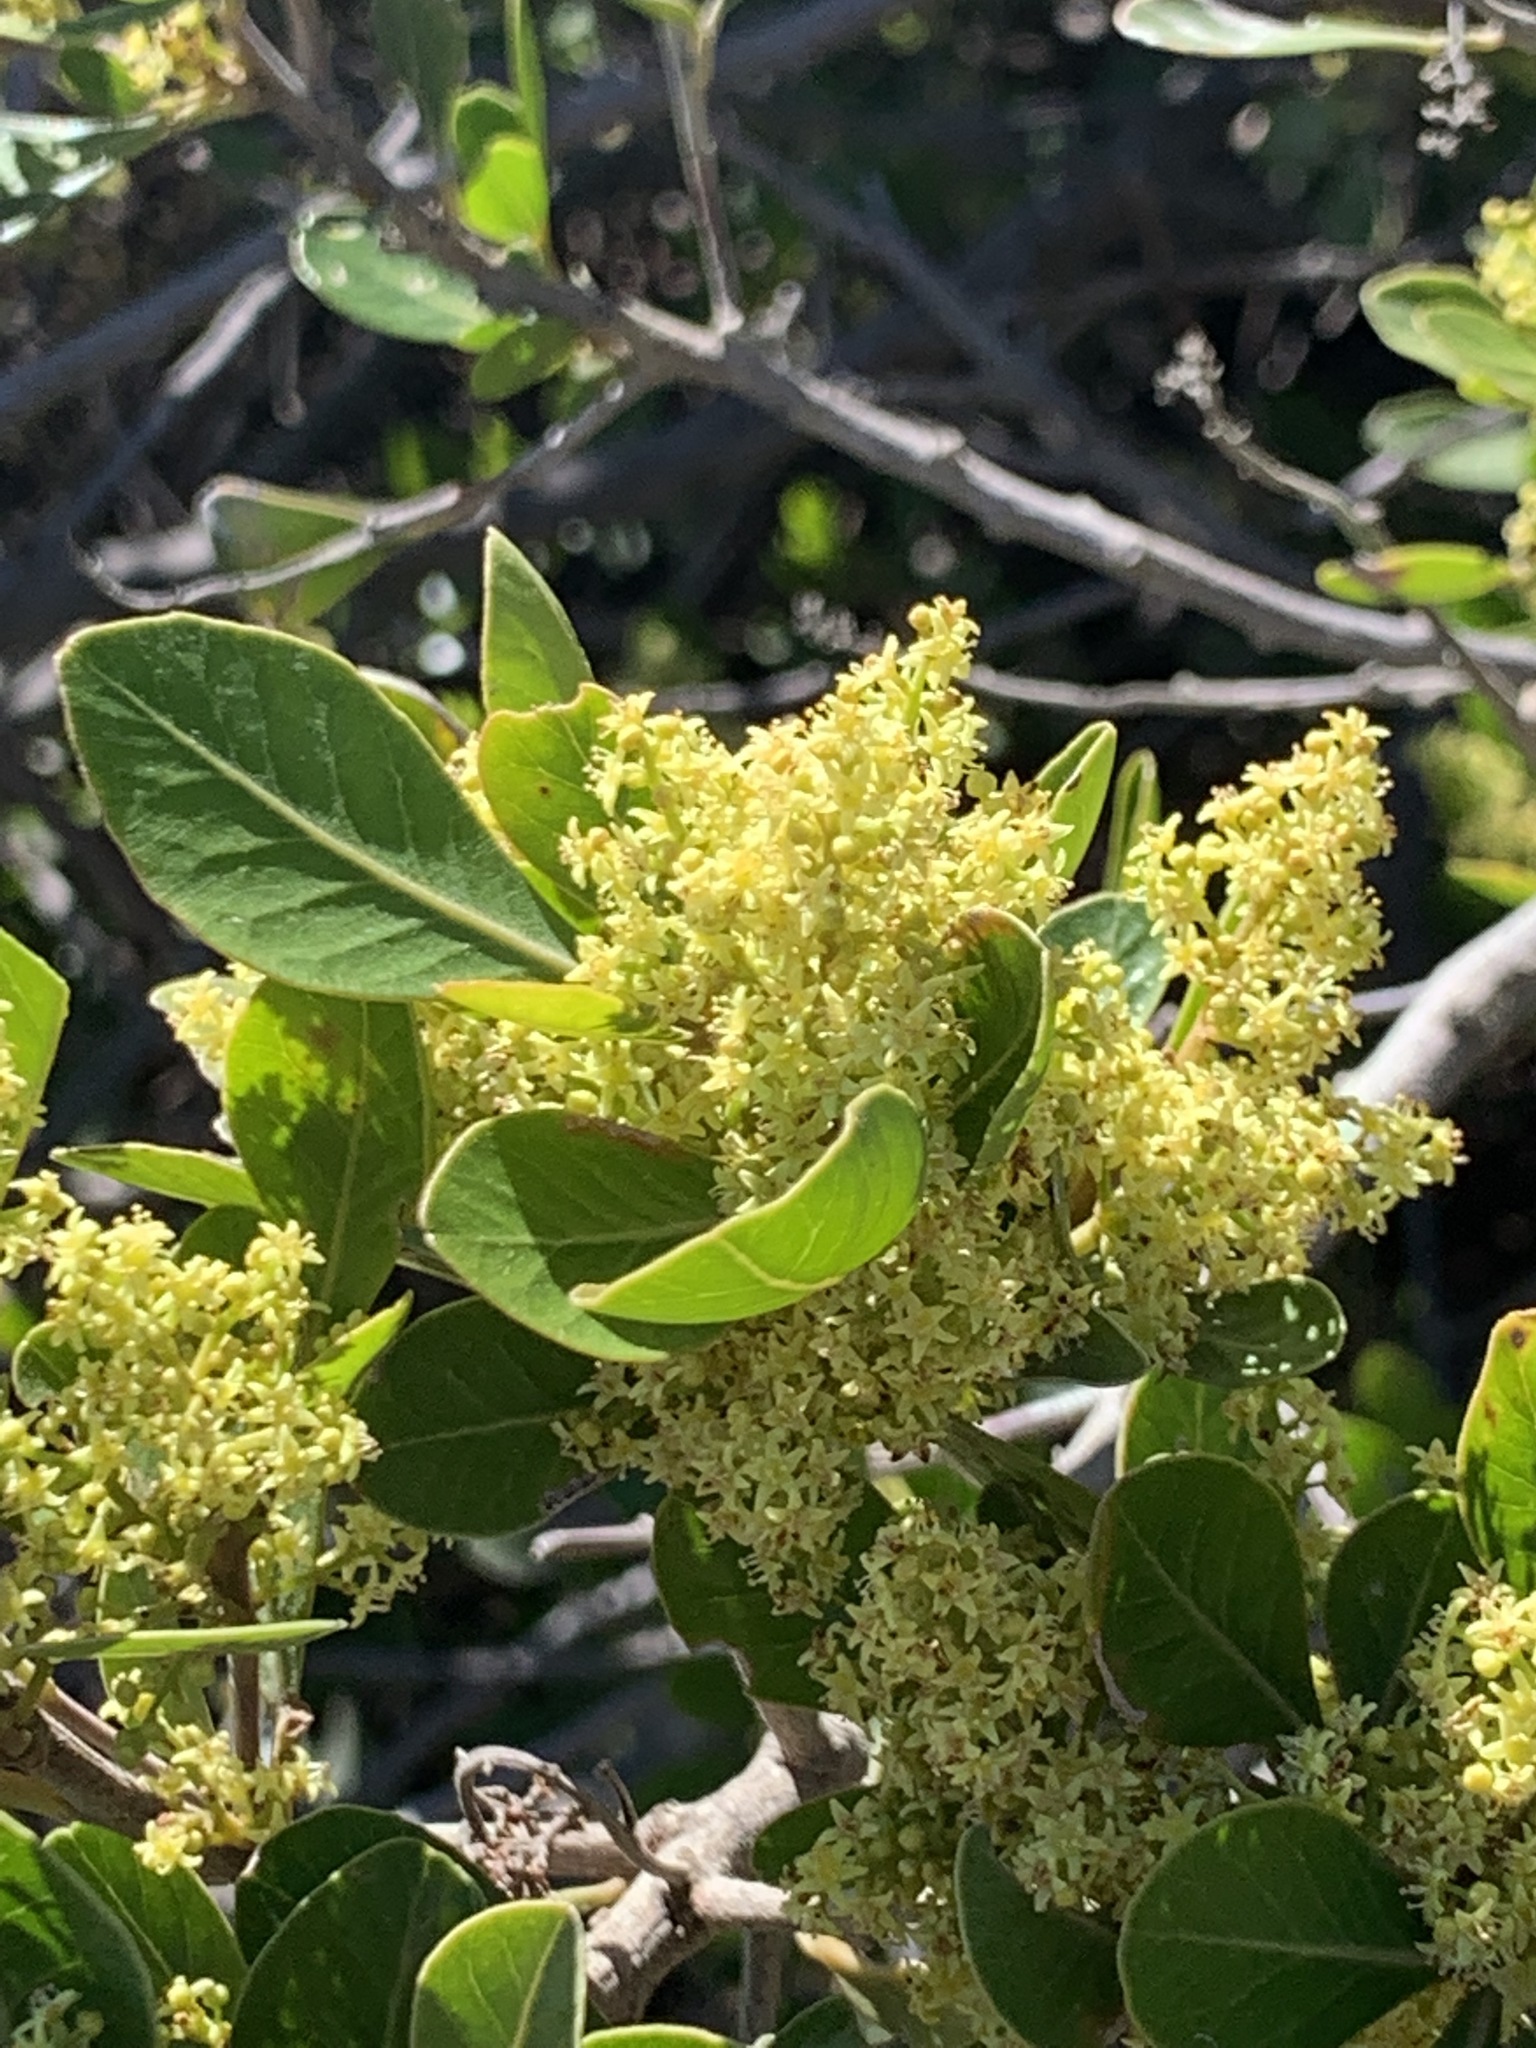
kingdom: Plantae
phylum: Tracheophyta
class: Magnoliopsida
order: Sapindales
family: Anacardiaceae
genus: Searsia
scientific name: Searsia lucida
